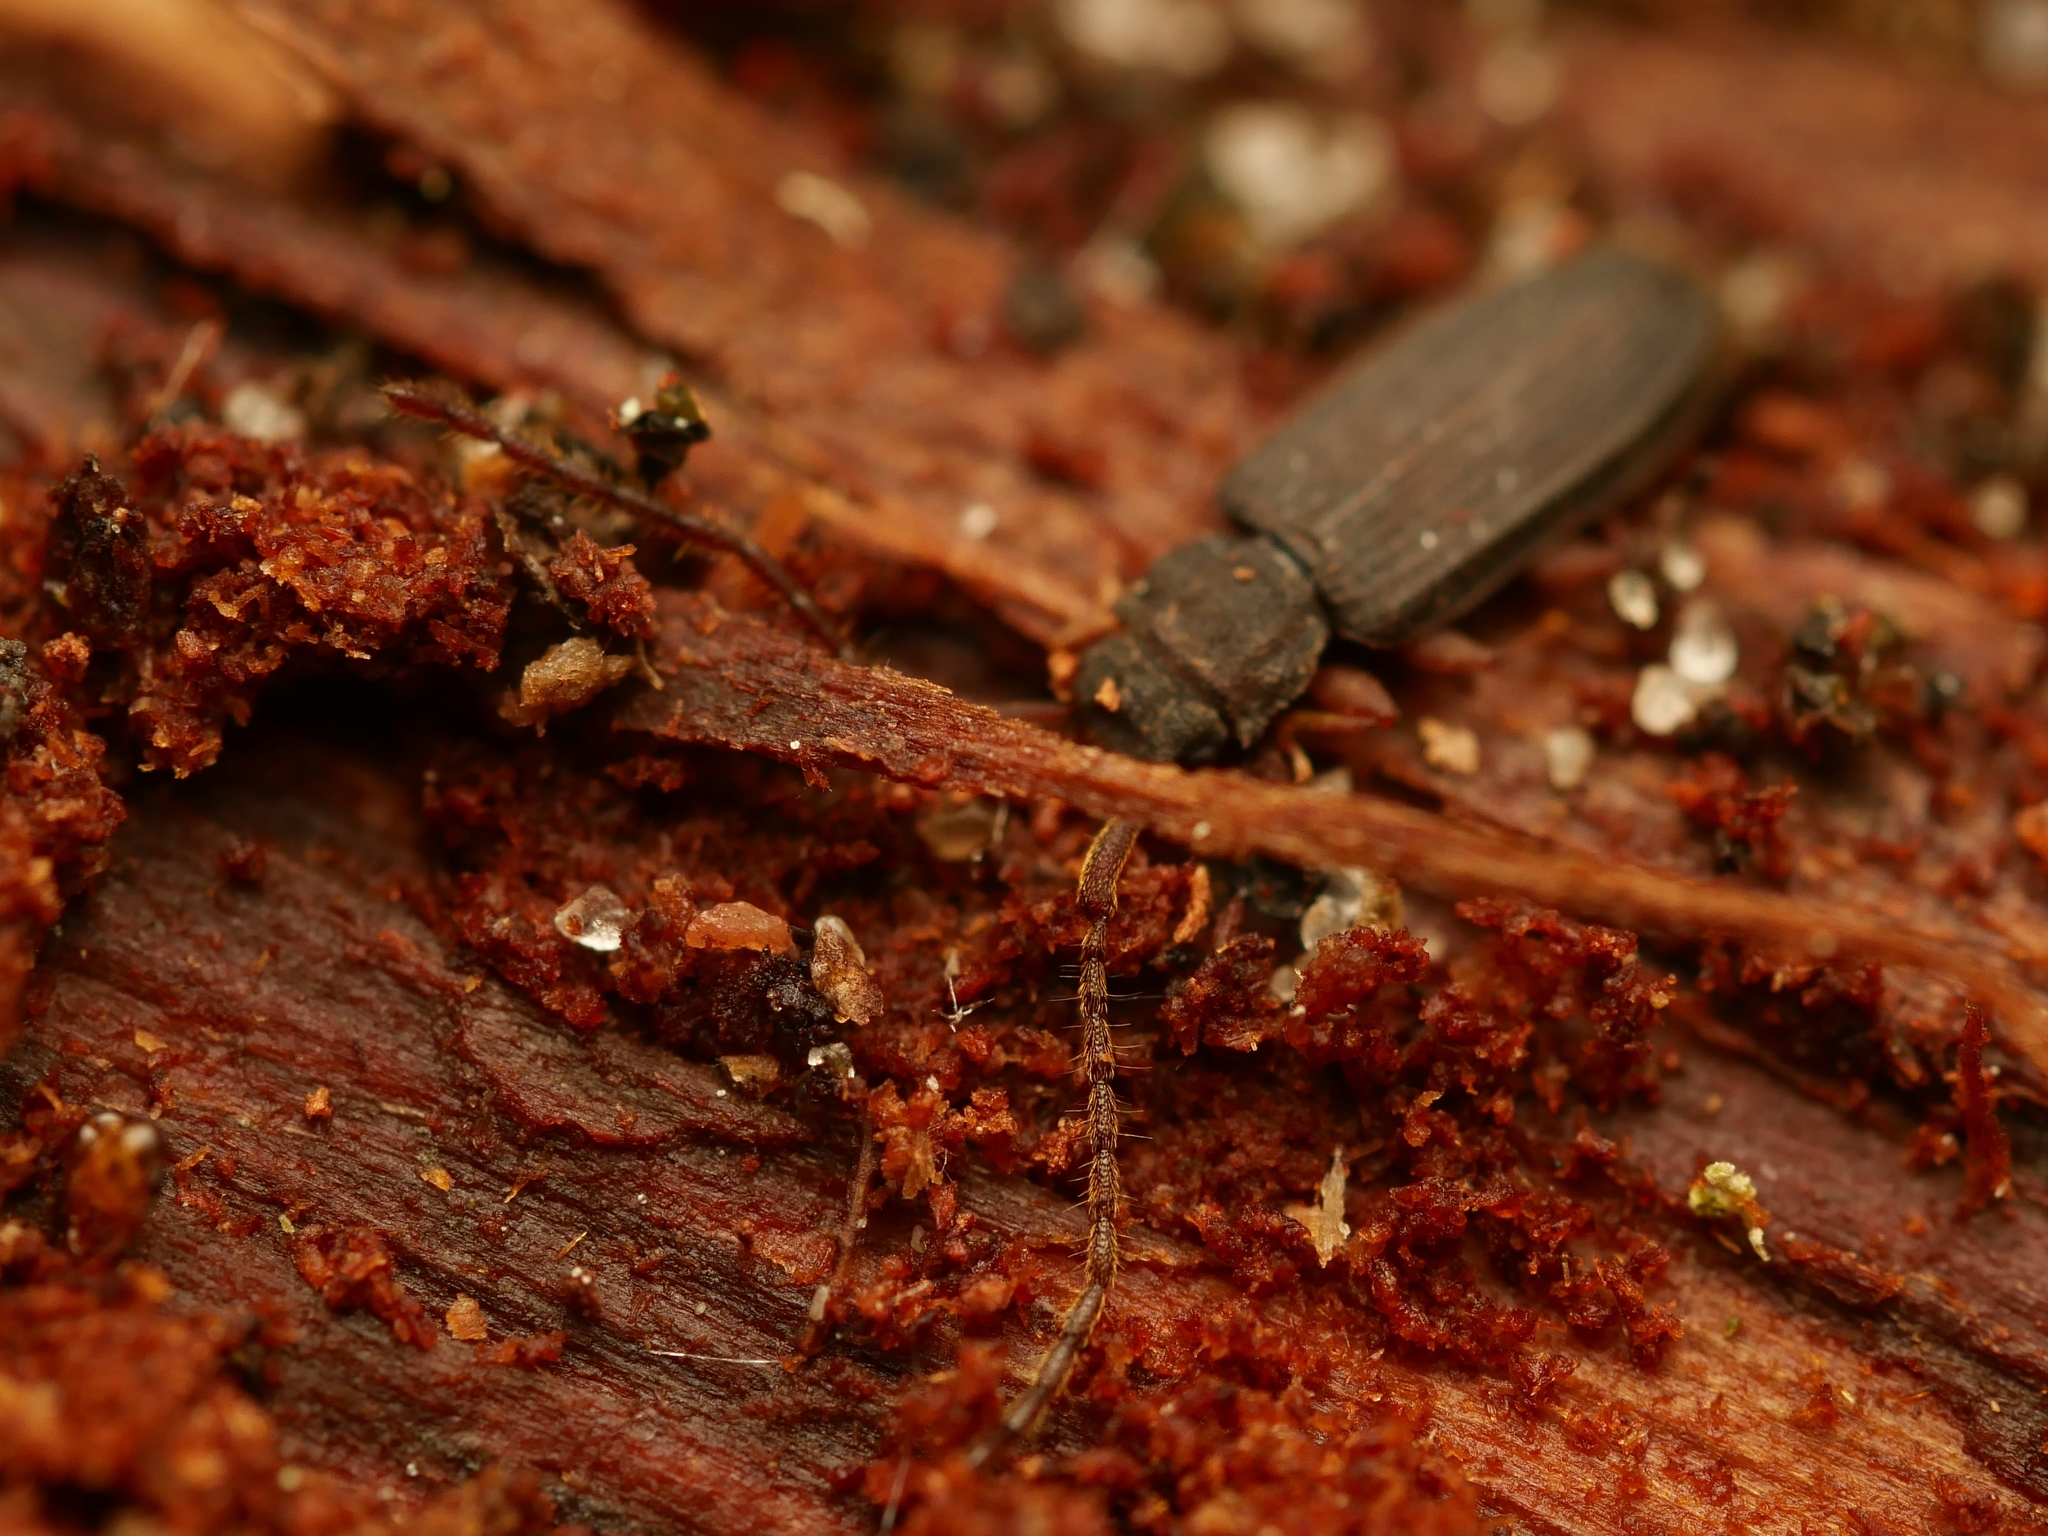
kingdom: Animalia
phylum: Arthropoda
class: Insecta
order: Coleoptera
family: Silvanidae
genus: Uleiota
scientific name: Uleiota planatus
